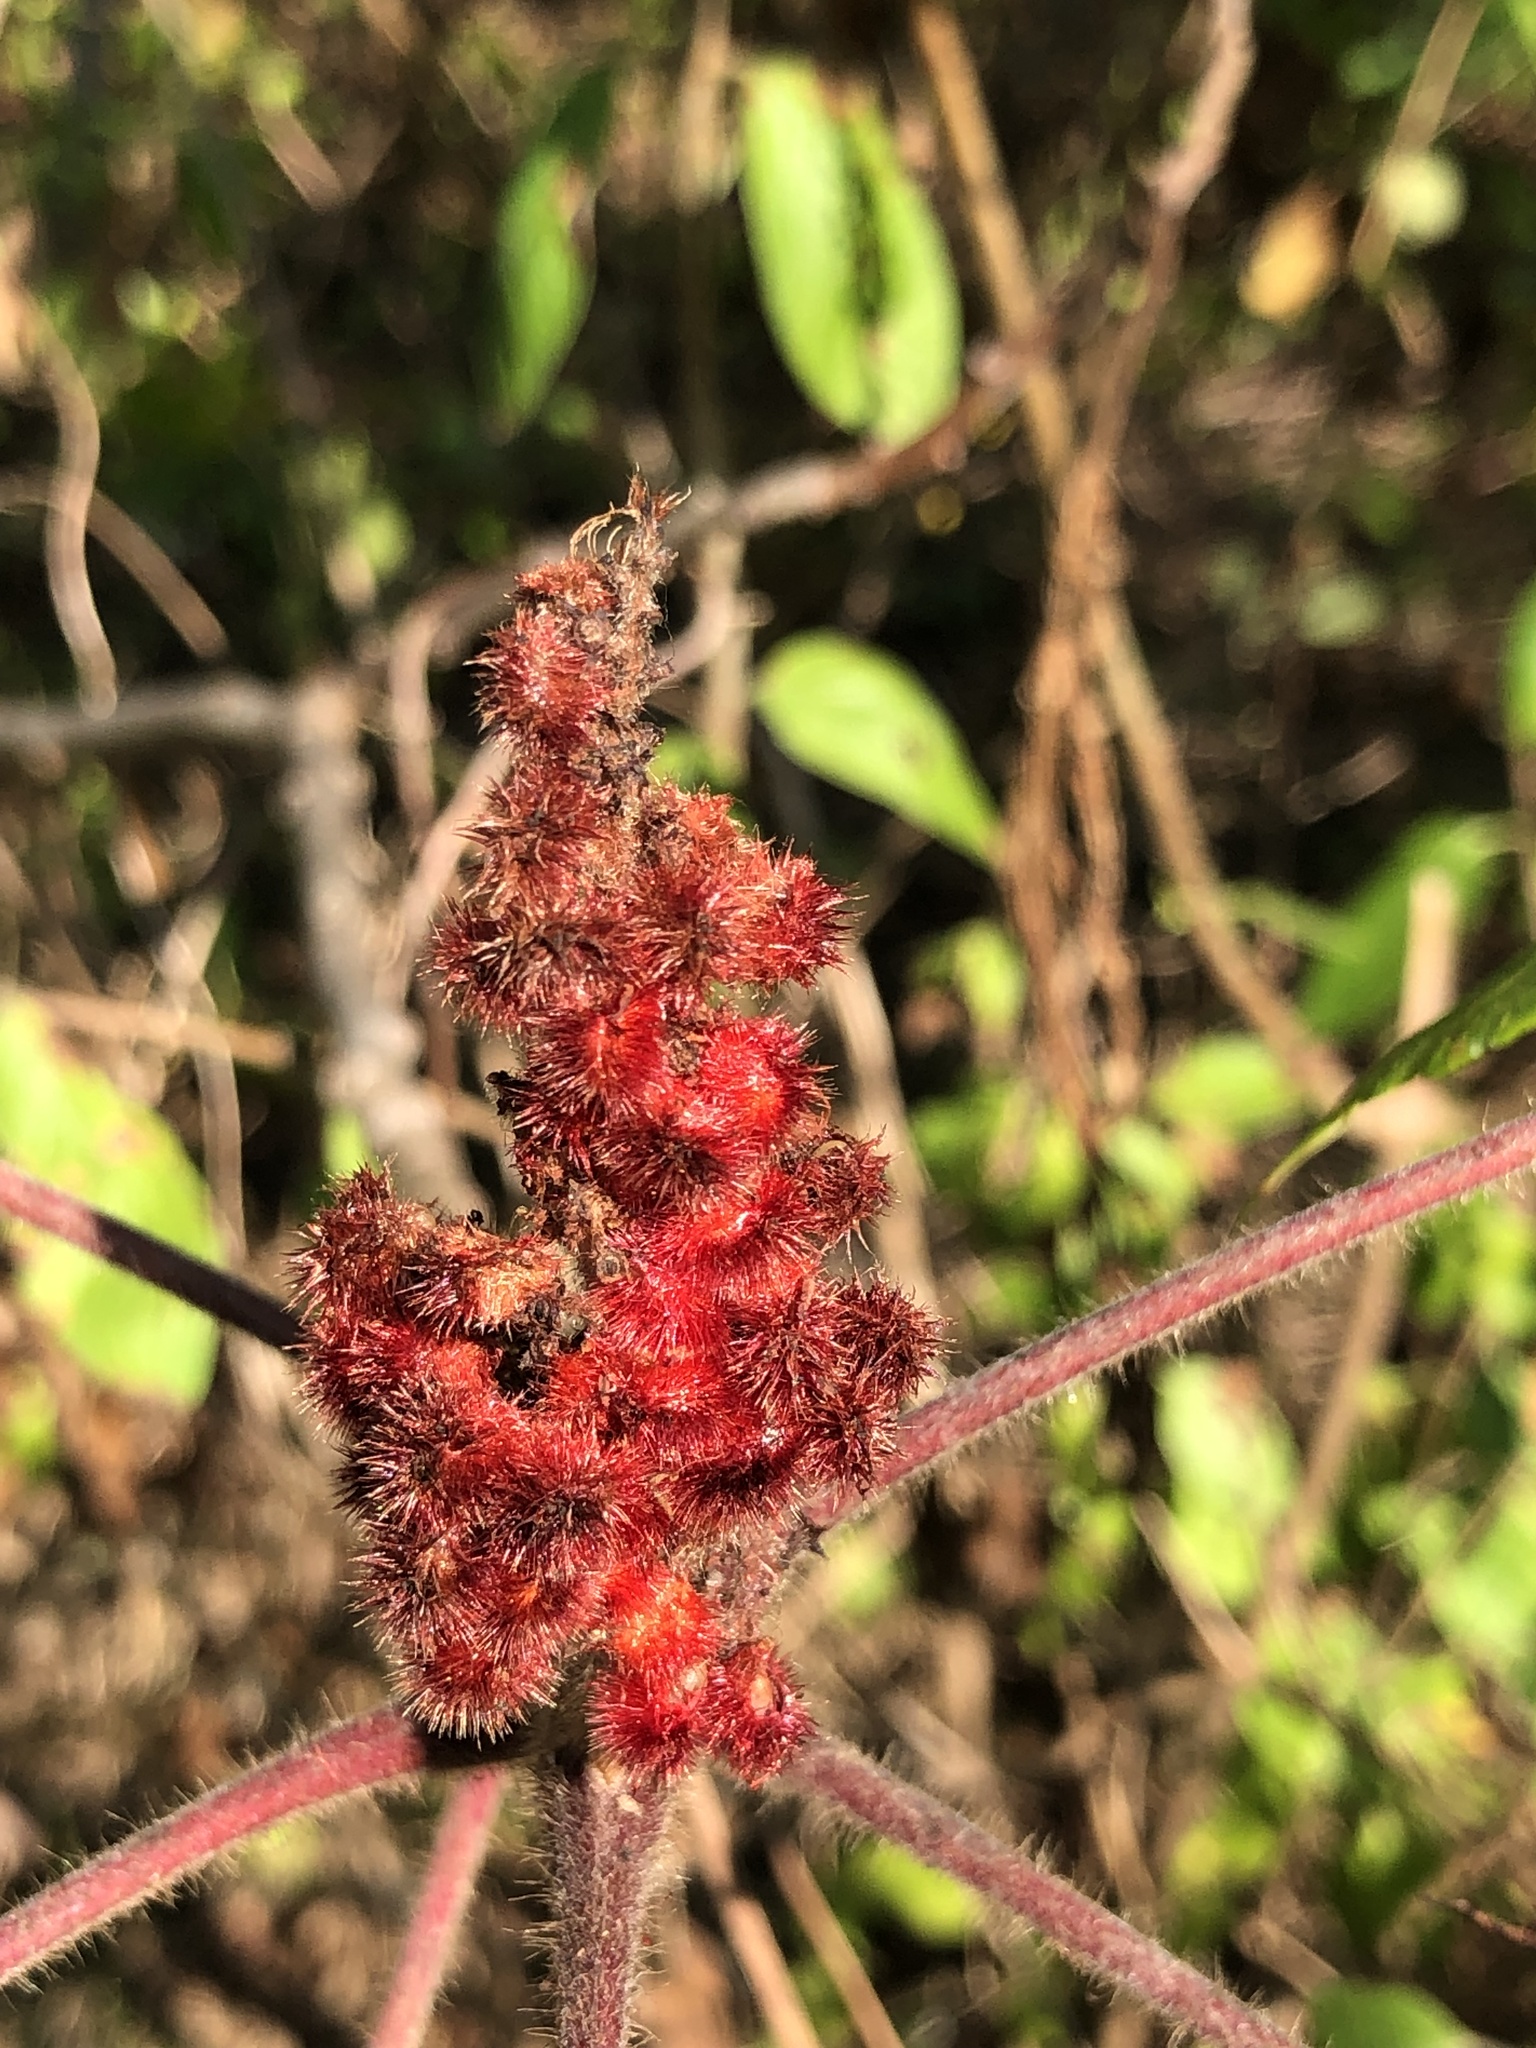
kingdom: Plantae
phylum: Tracheophyta
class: Magnoliopsida
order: Sapindales
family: Anacardiaceae
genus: Rhus
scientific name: Rhus typhina
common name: Staghorn sumac
